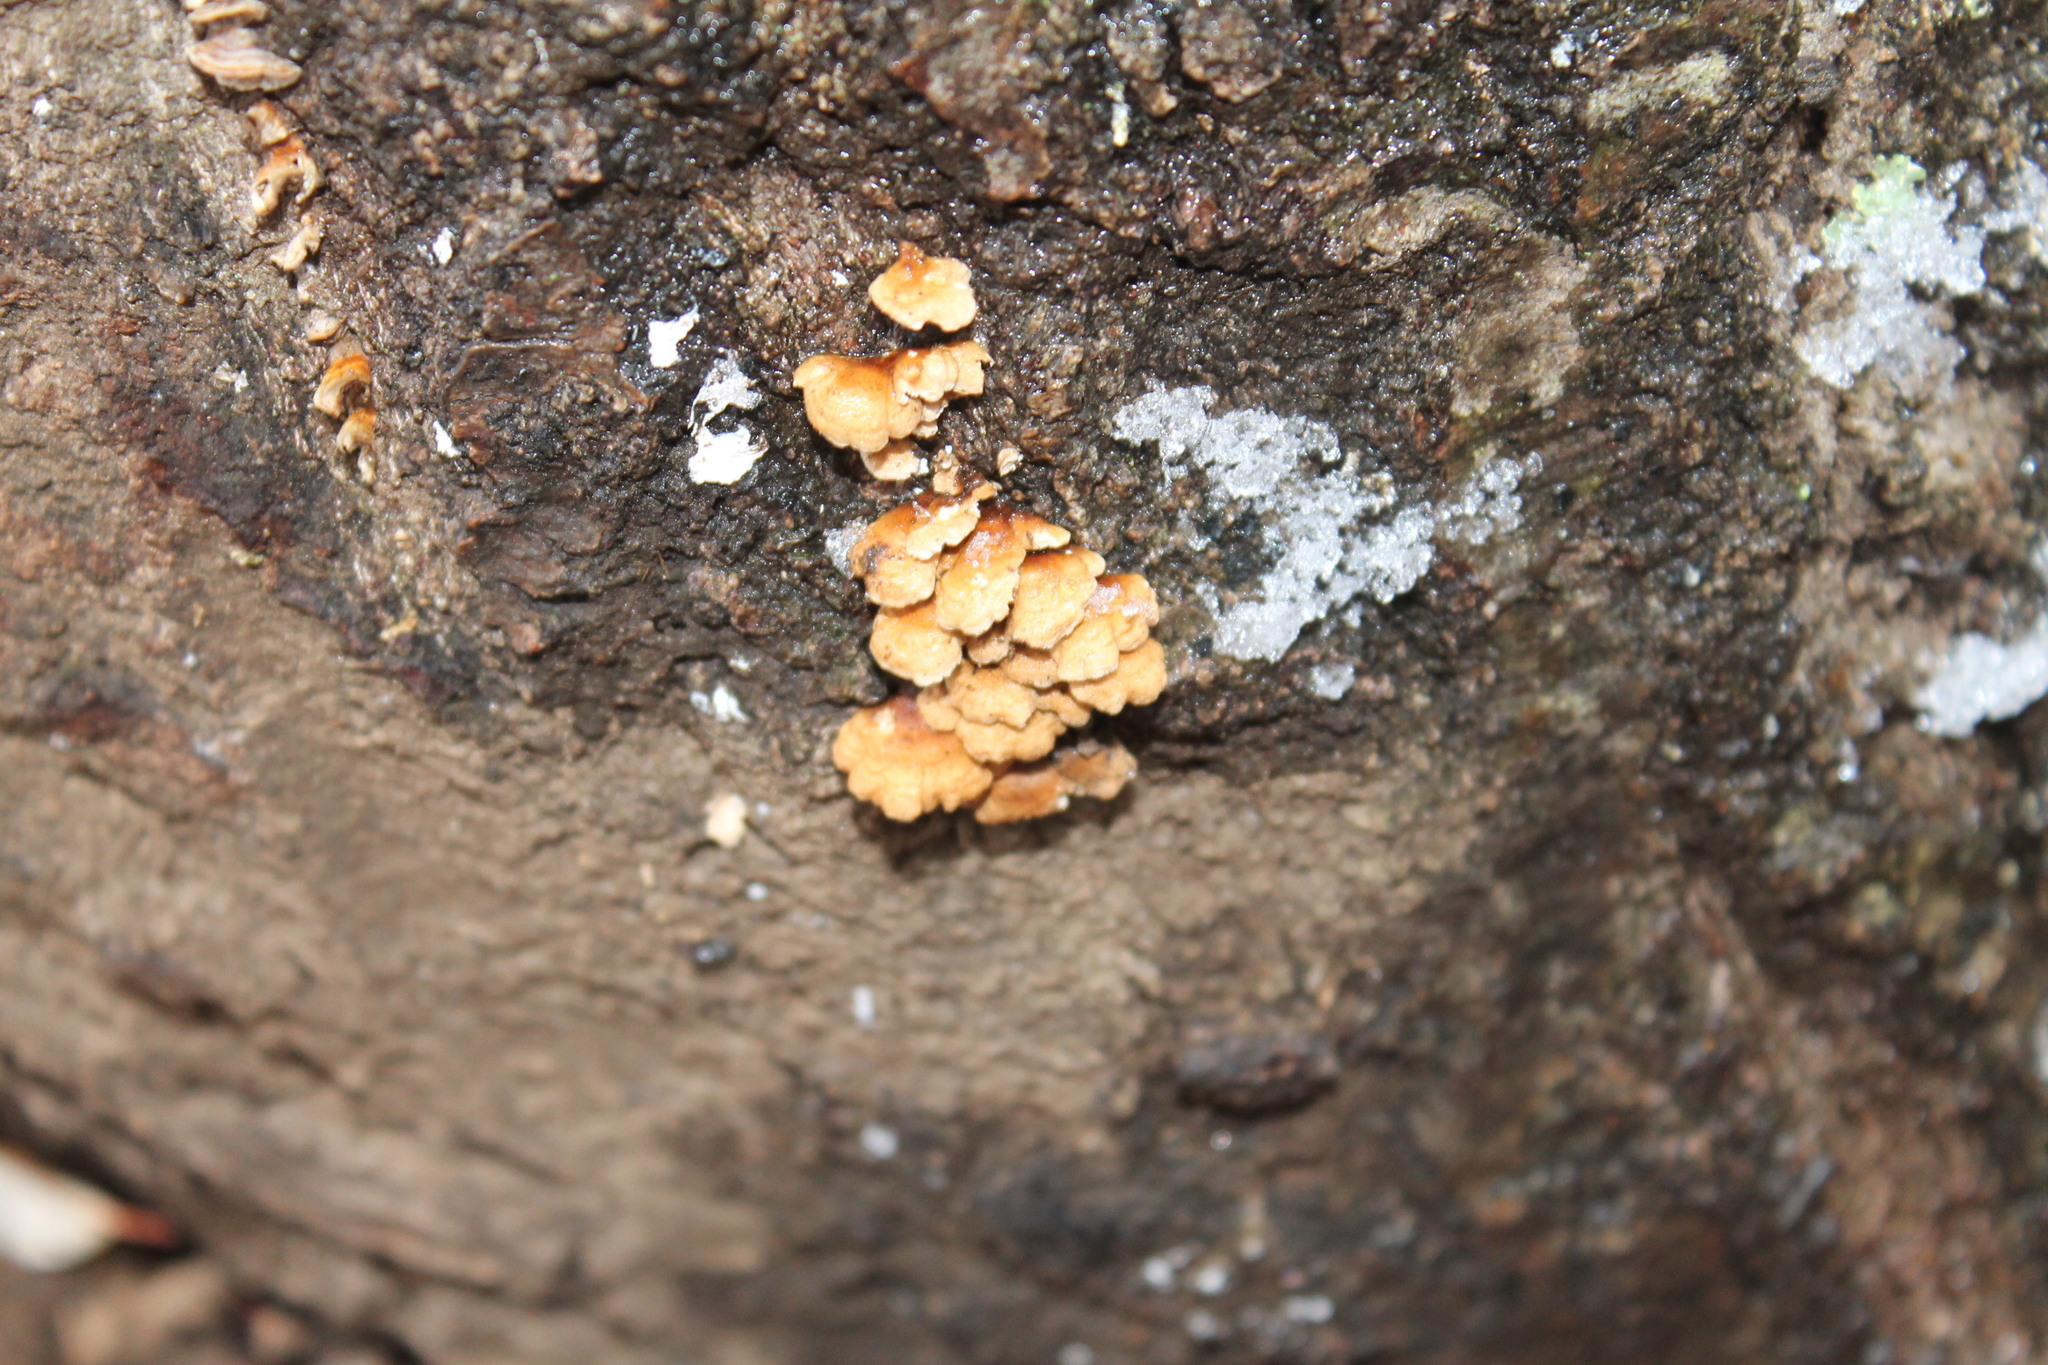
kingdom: Fungi
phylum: Basidiomycota
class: Agaricomycetes
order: Amylocorticiales
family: Amylocorticiaceae
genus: Plicaturopsis
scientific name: Plicaturopsis crispa
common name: Crimped gill
